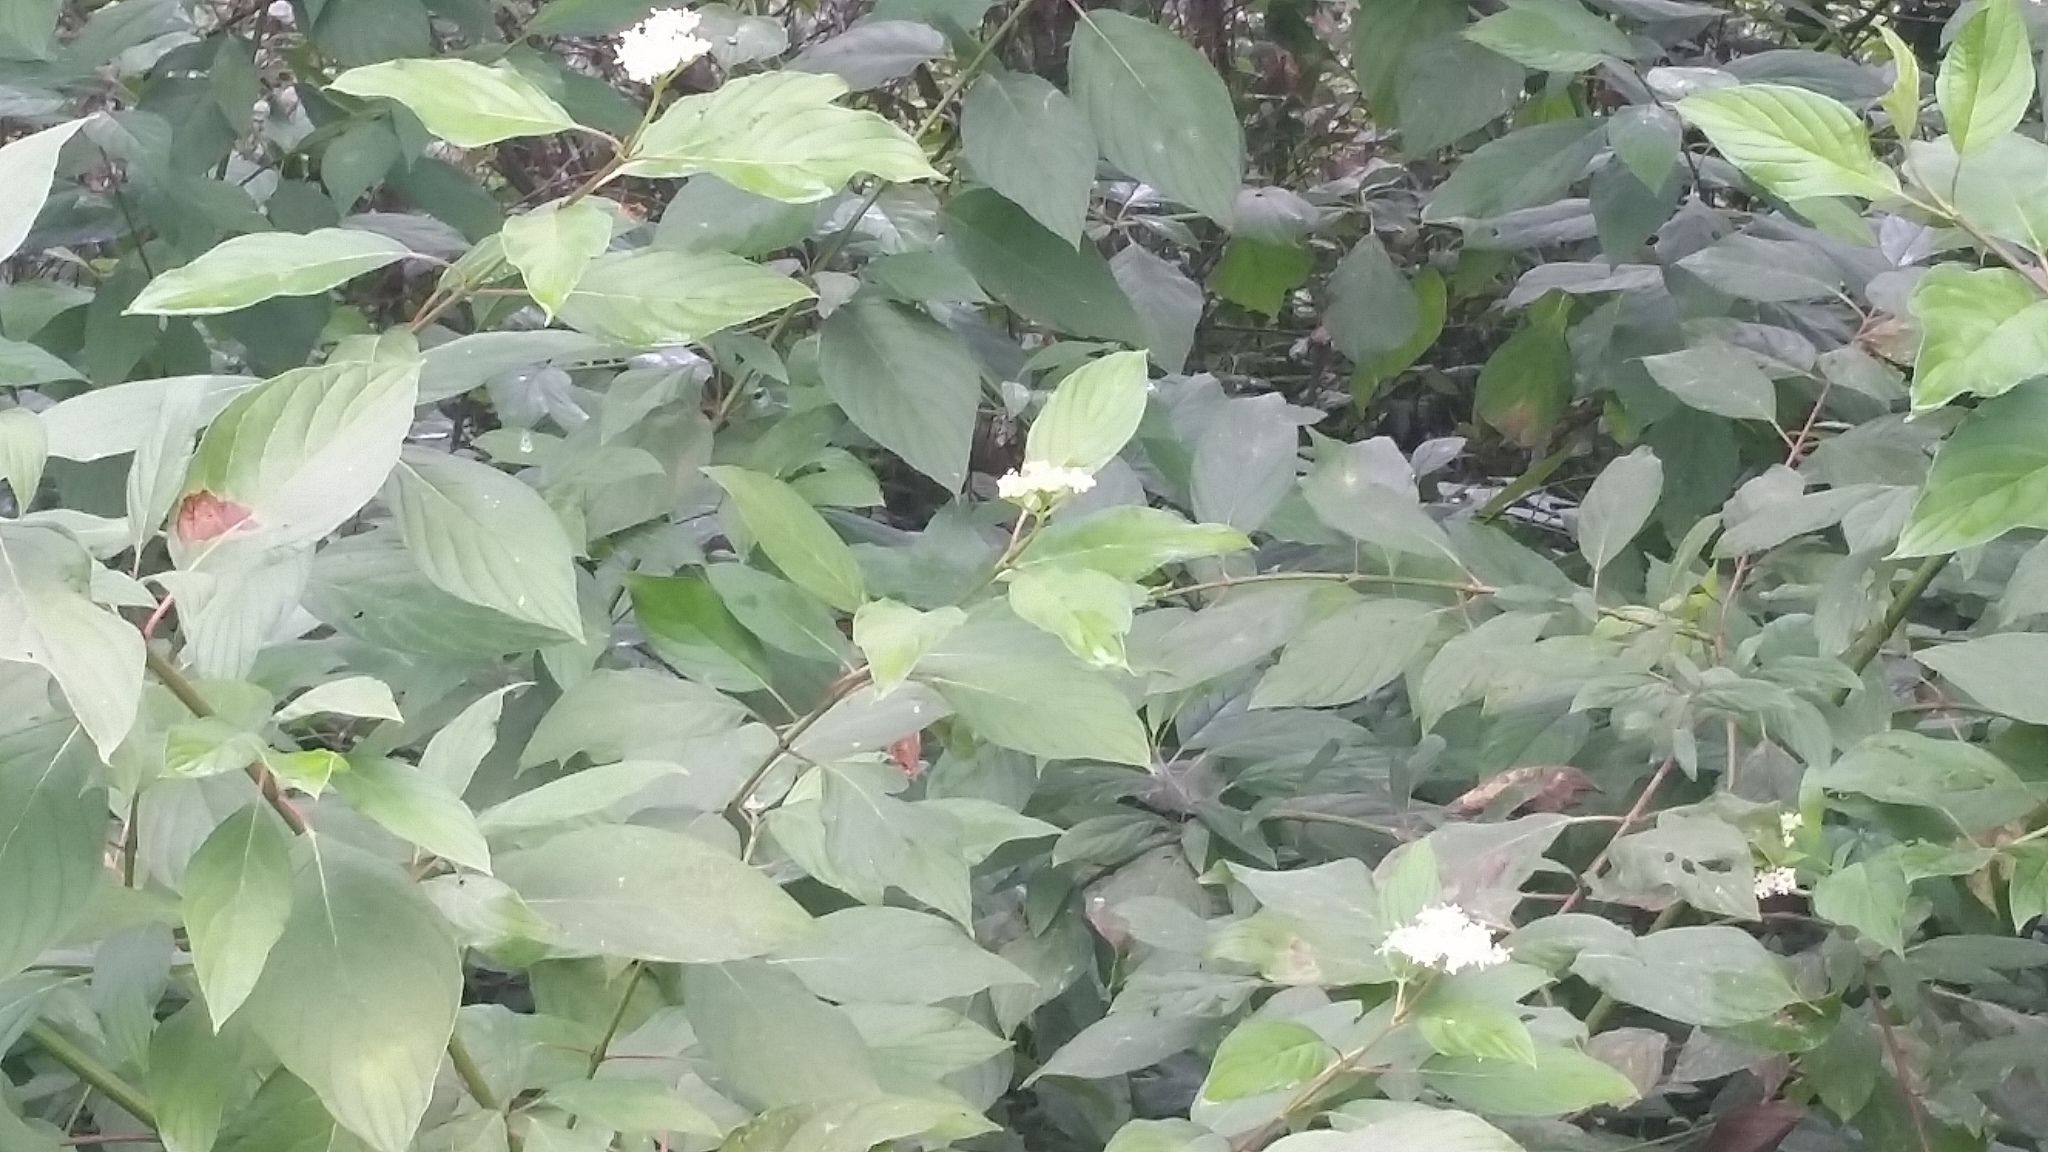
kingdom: Plantae
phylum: Tracheophyta
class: Magnoliopsida
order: Cornales
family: Cornaceae
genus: Cornus
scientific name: Cornus sericea
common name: Red-osier dogwood
